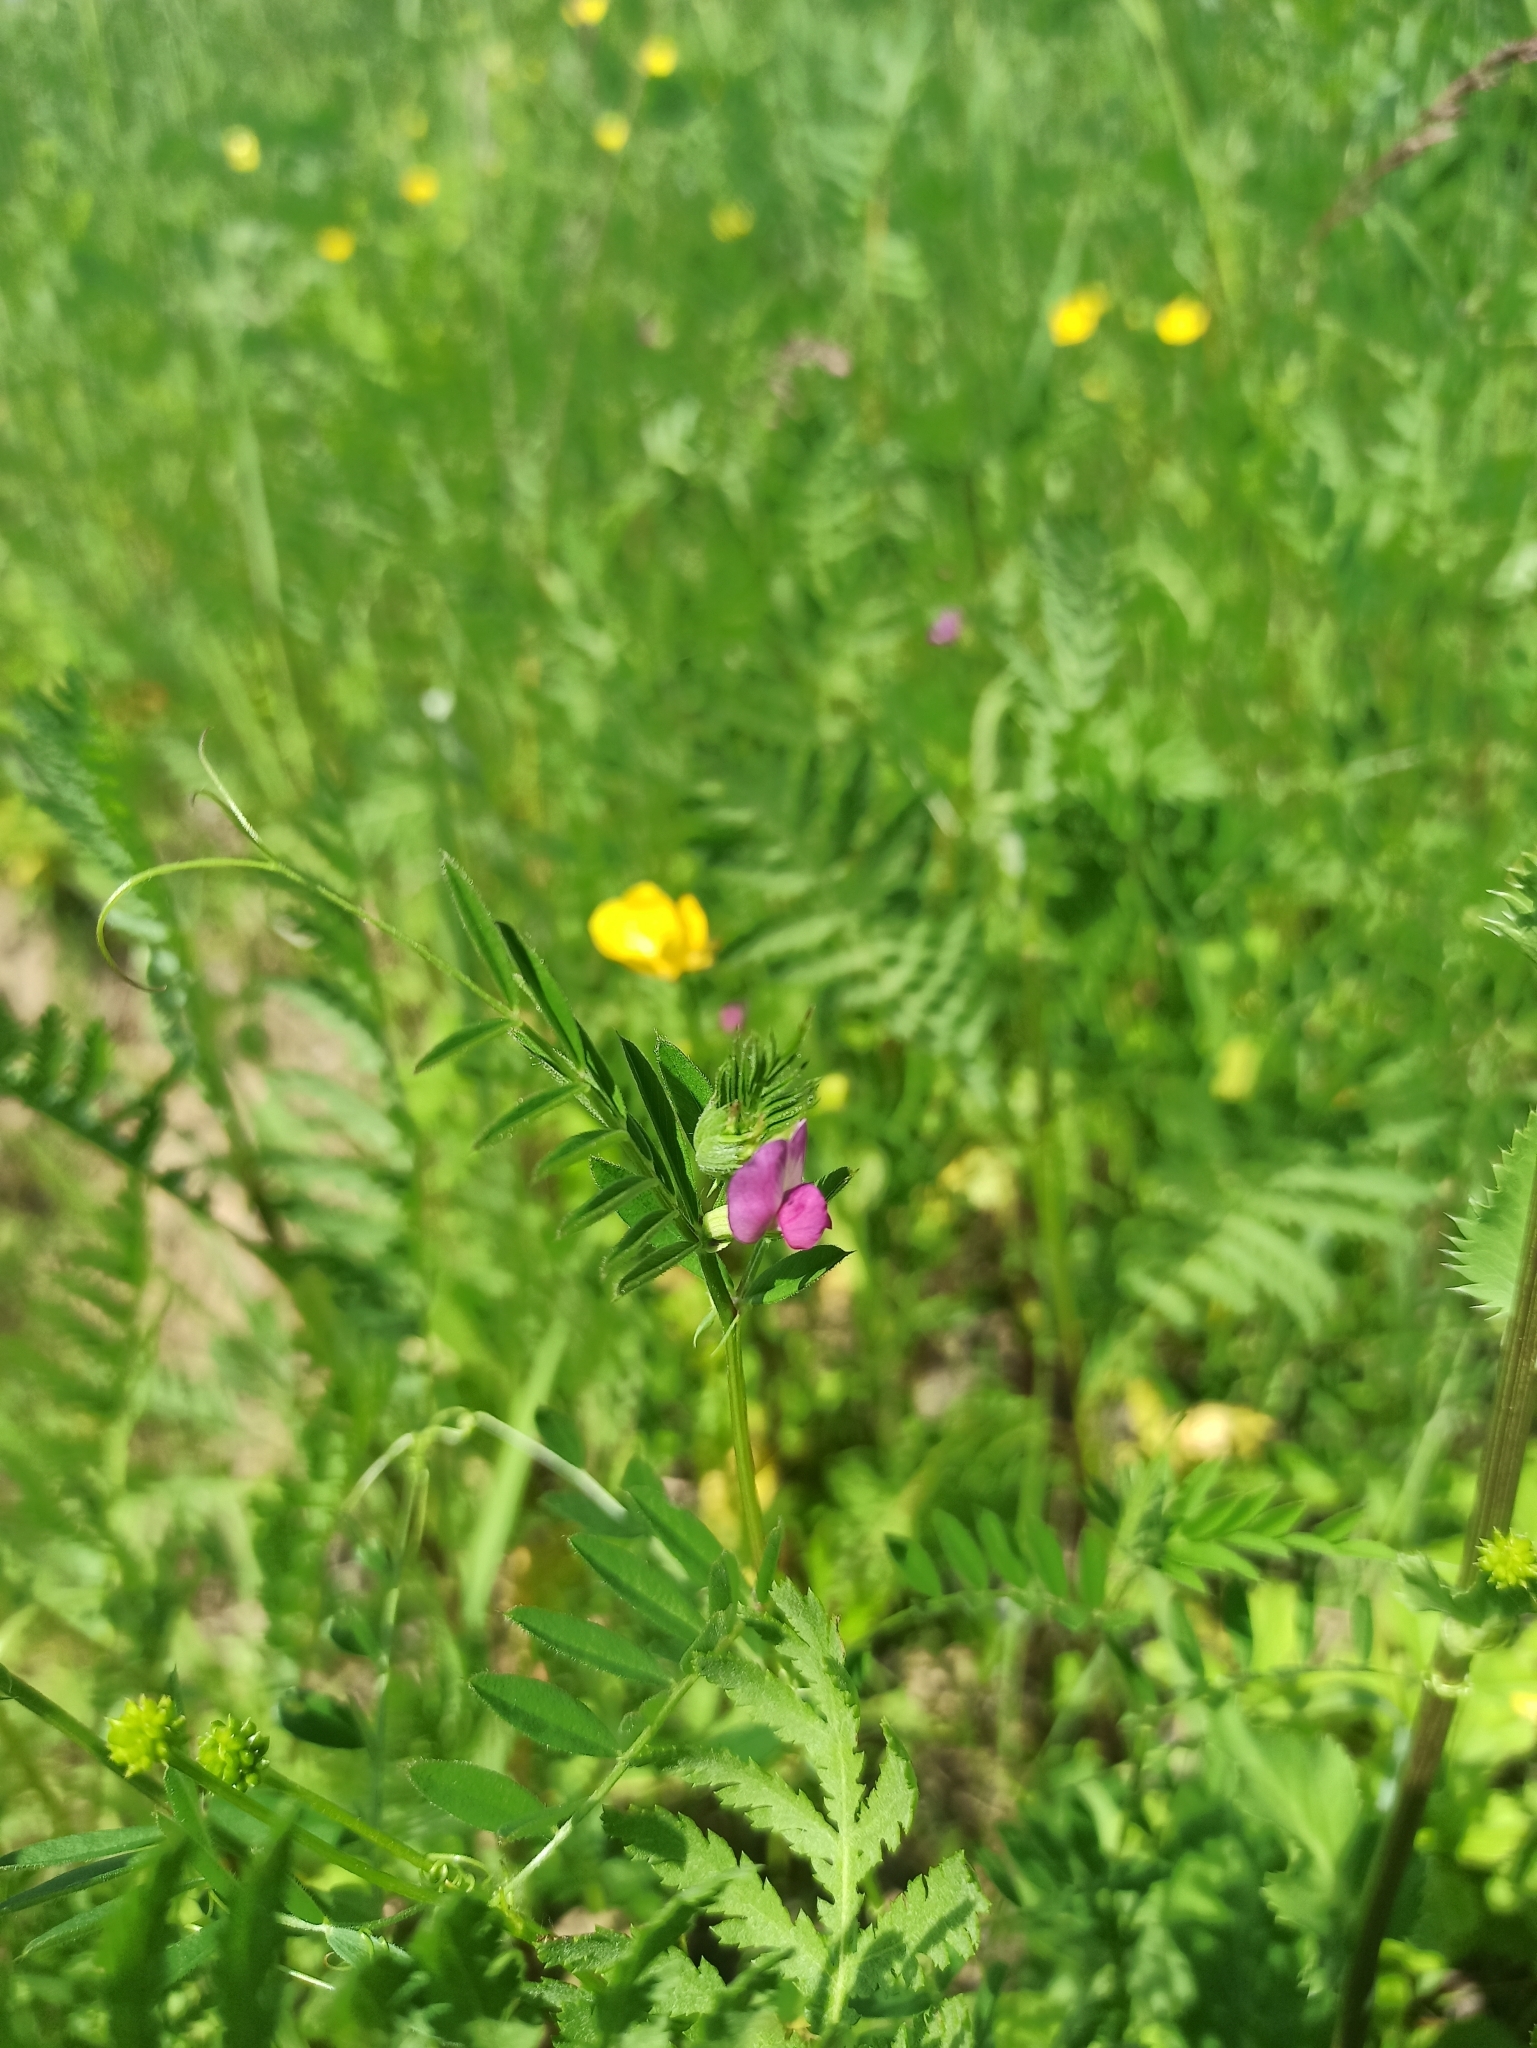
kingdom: Plantae
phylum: Tracheophyta
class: Magnoliopsida
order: Fabales
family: Fabaceae
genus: Vicia
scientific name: Vicia sativa
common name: Garden vetch
